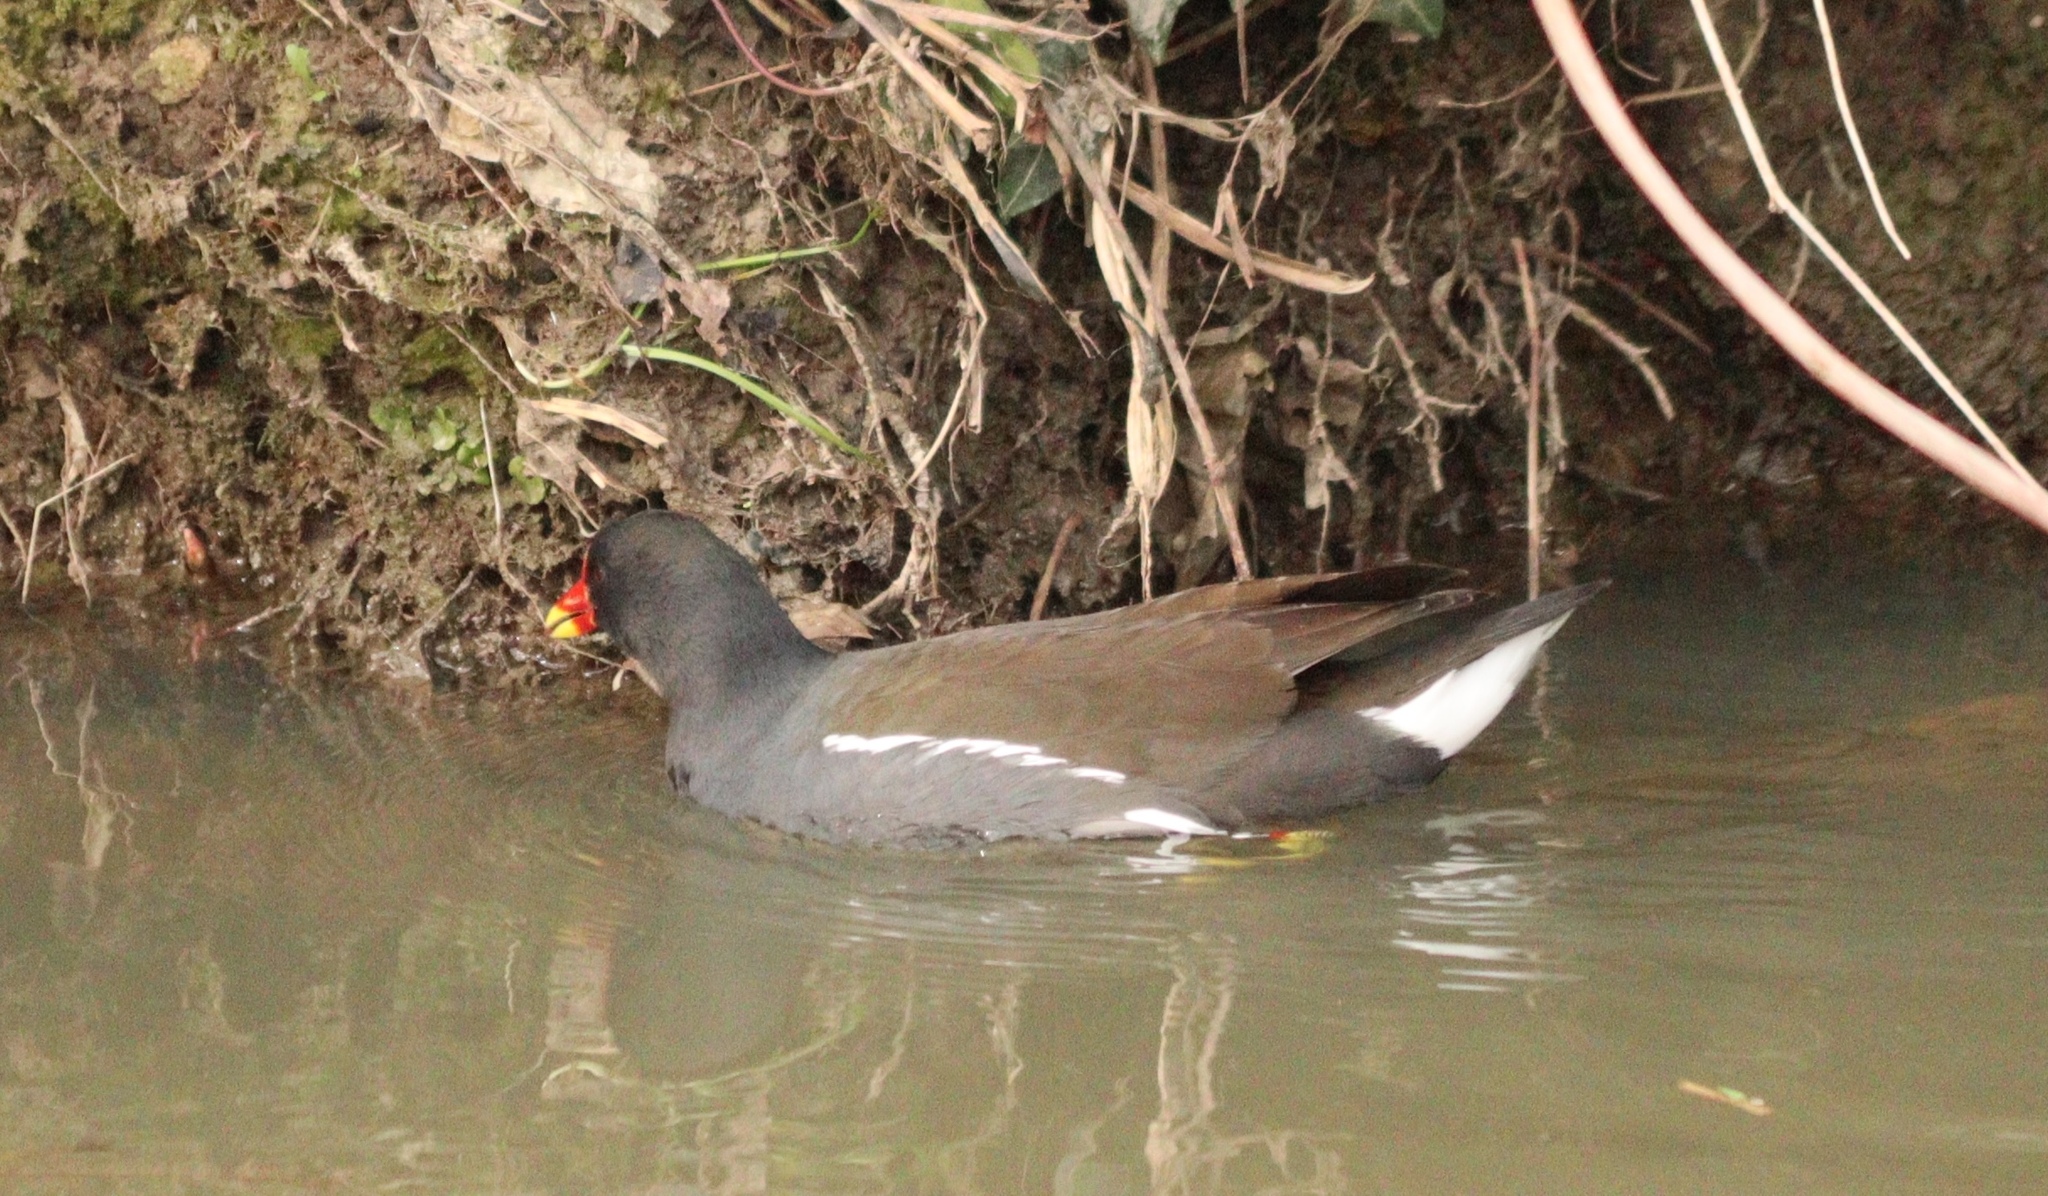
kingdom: Animalia
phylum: Chordata
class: Aves
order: Gruiformes
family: Rallidae
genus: Gallinula
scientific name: Gallinula chloropus
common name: Common moorhen
